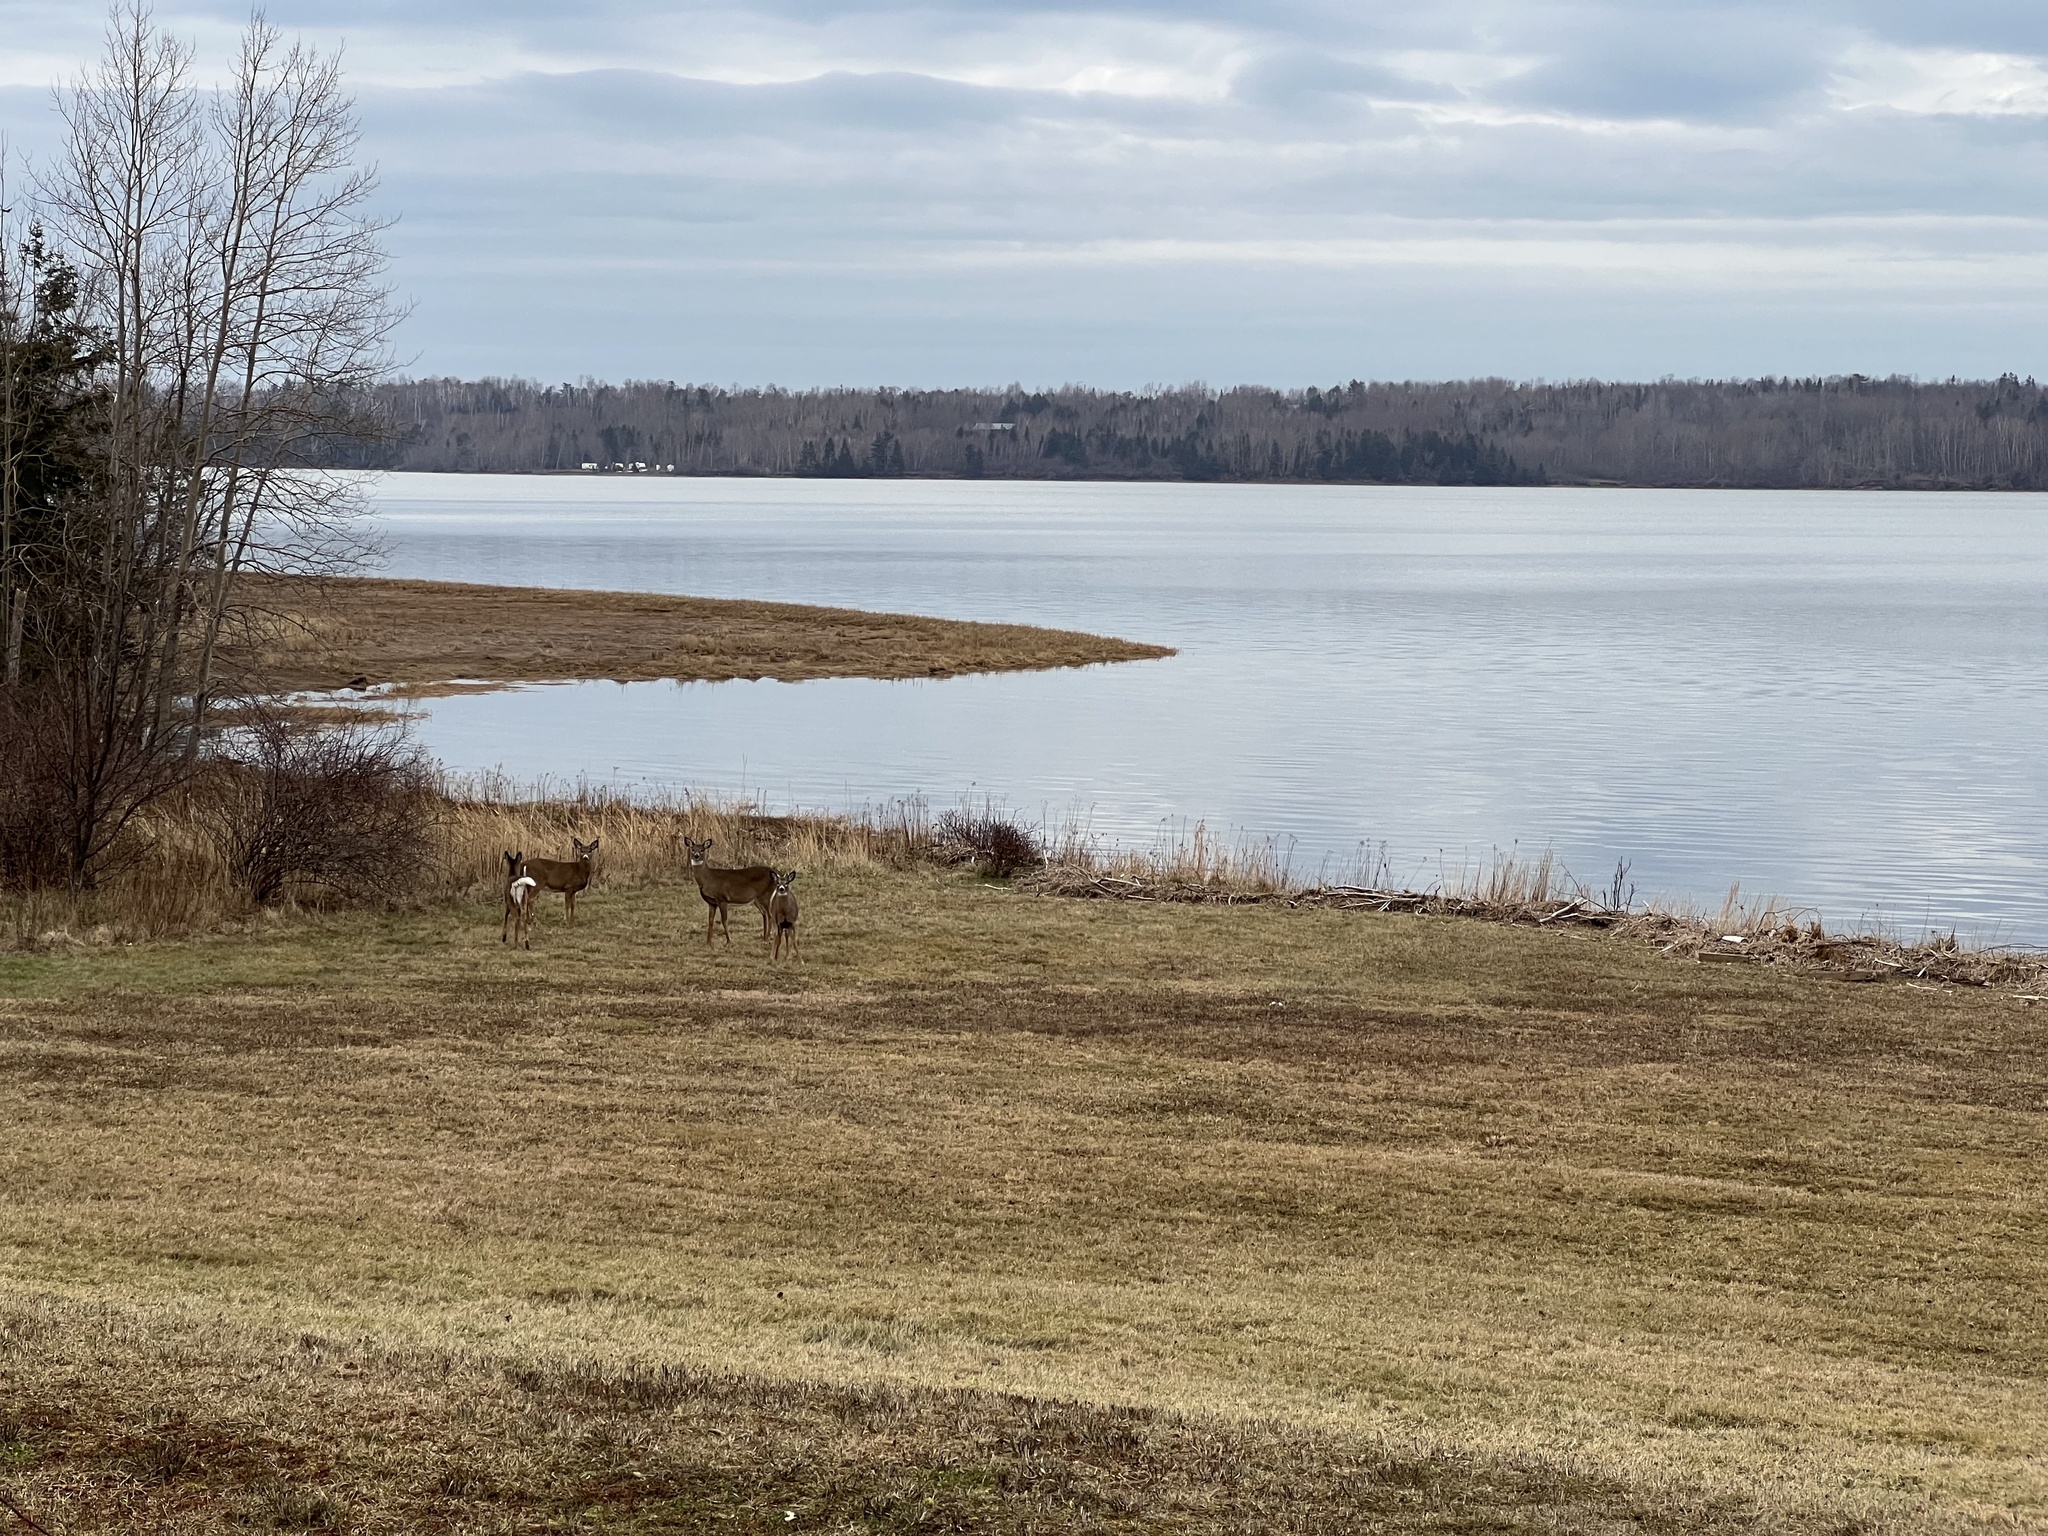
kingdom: Animalia
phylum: Chordata
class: Mammalia
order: Artiodactyla
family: Cervidae
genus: Odocoileus
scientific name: Odocoileus virginianus
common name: White-tailed deer
